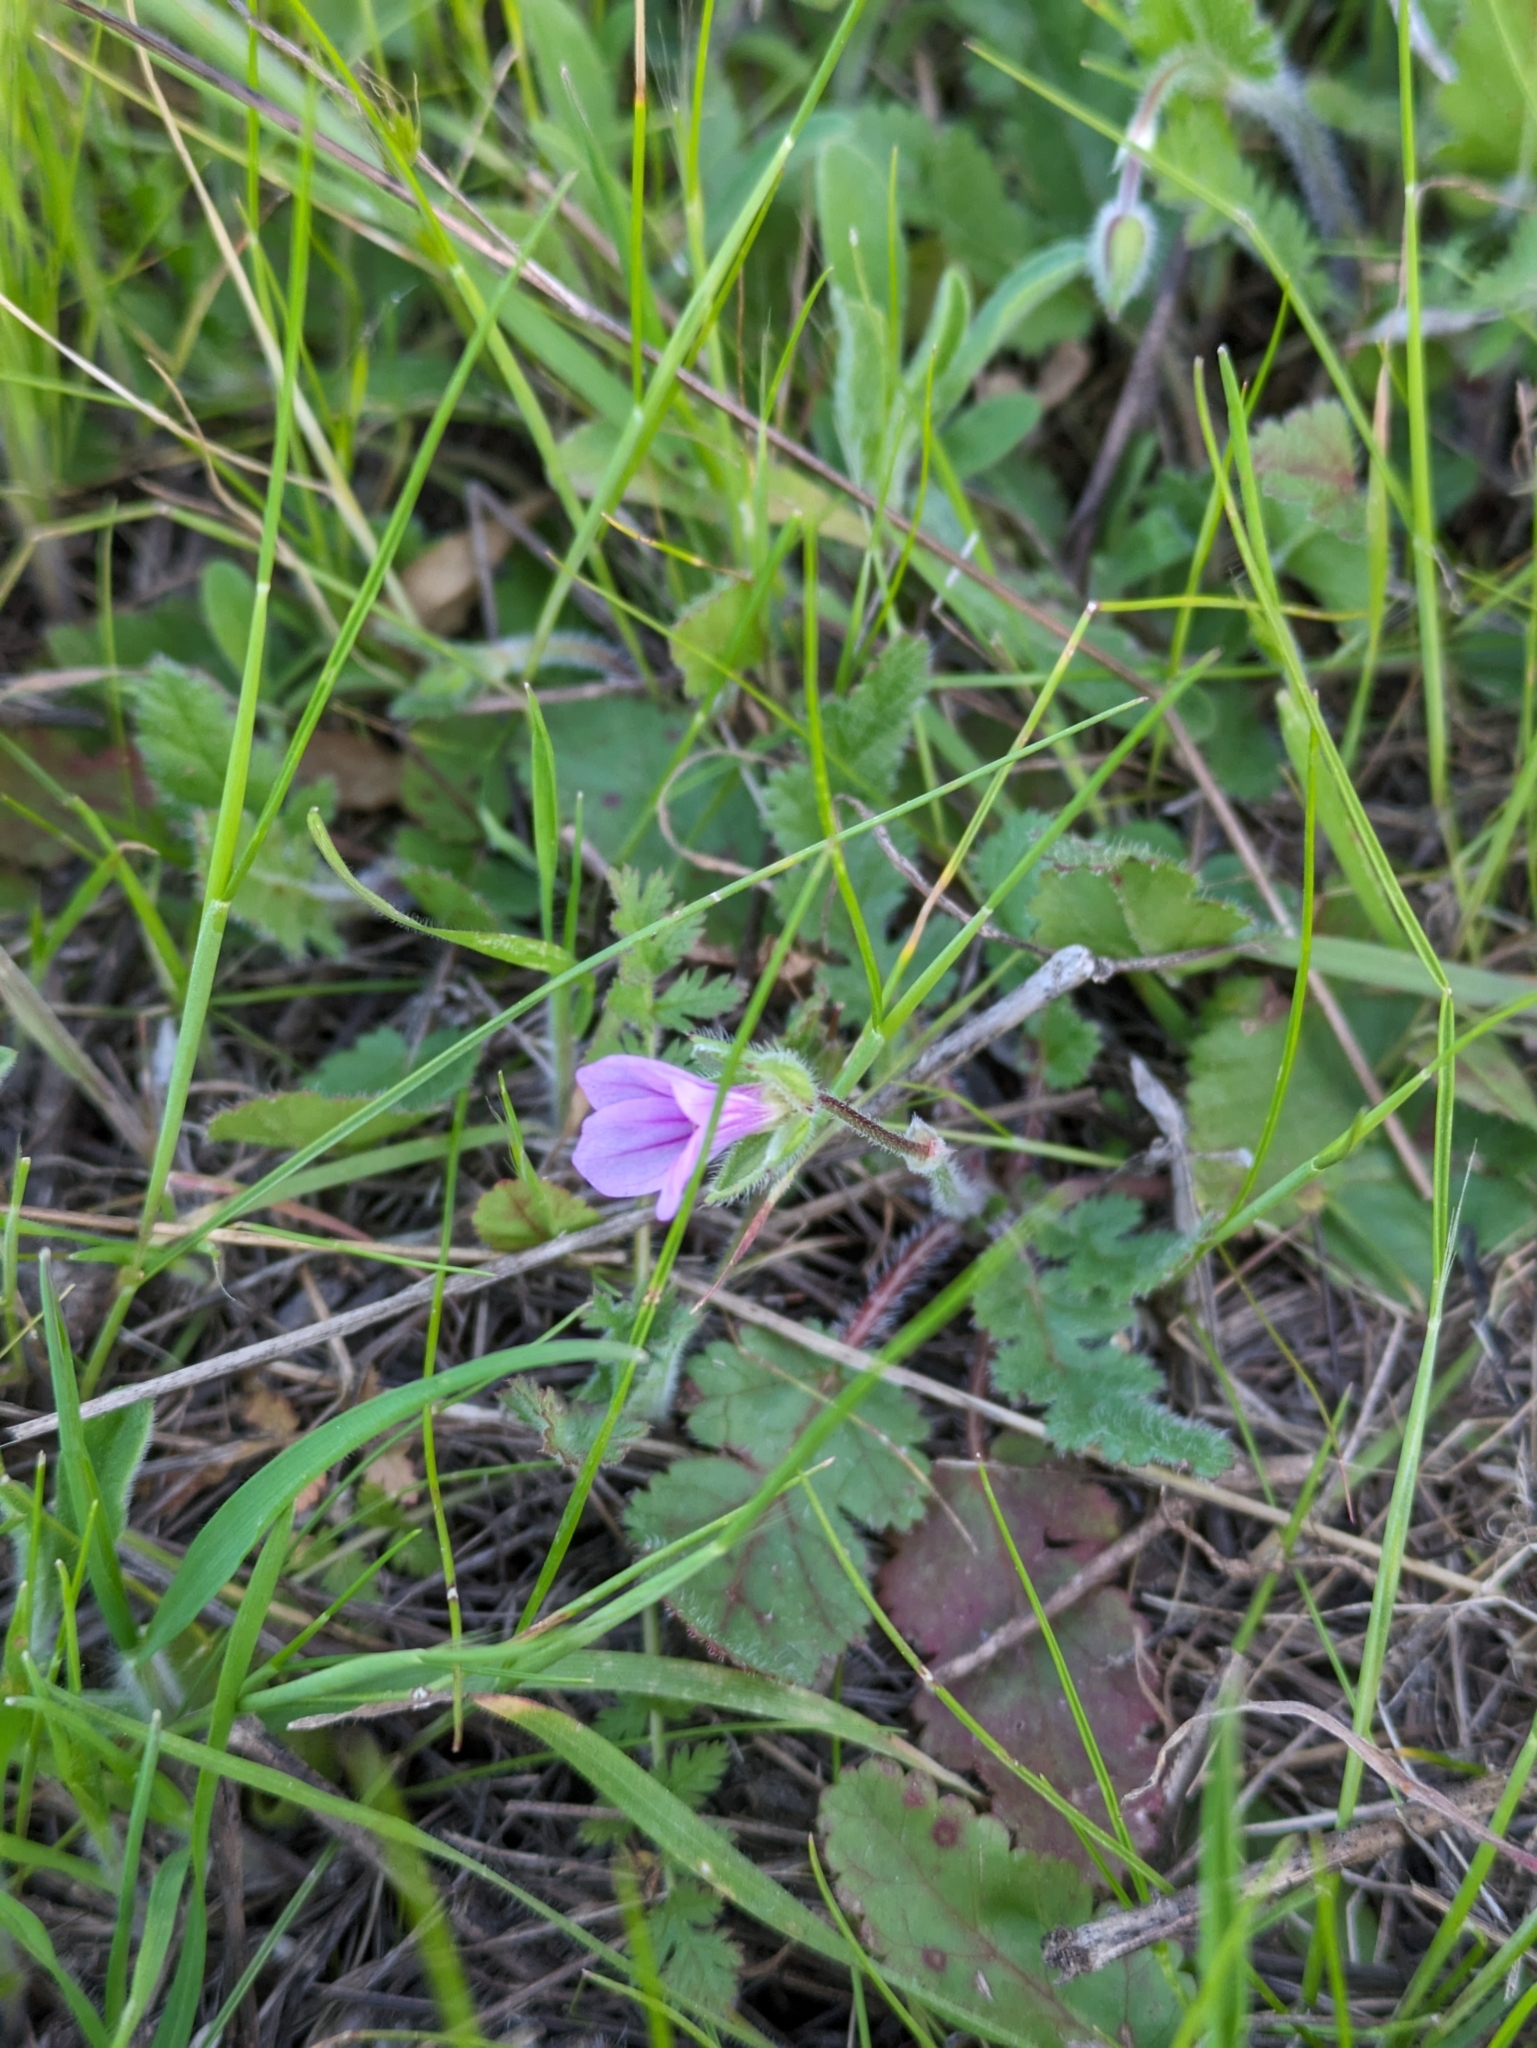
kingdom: Plantae
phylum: Tracheophyta
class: Magnoliopsida
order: Geraniales
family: Geraniaceae
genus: Erodium
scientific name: Erodium botrys
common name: Mediterranean stork's-bill
